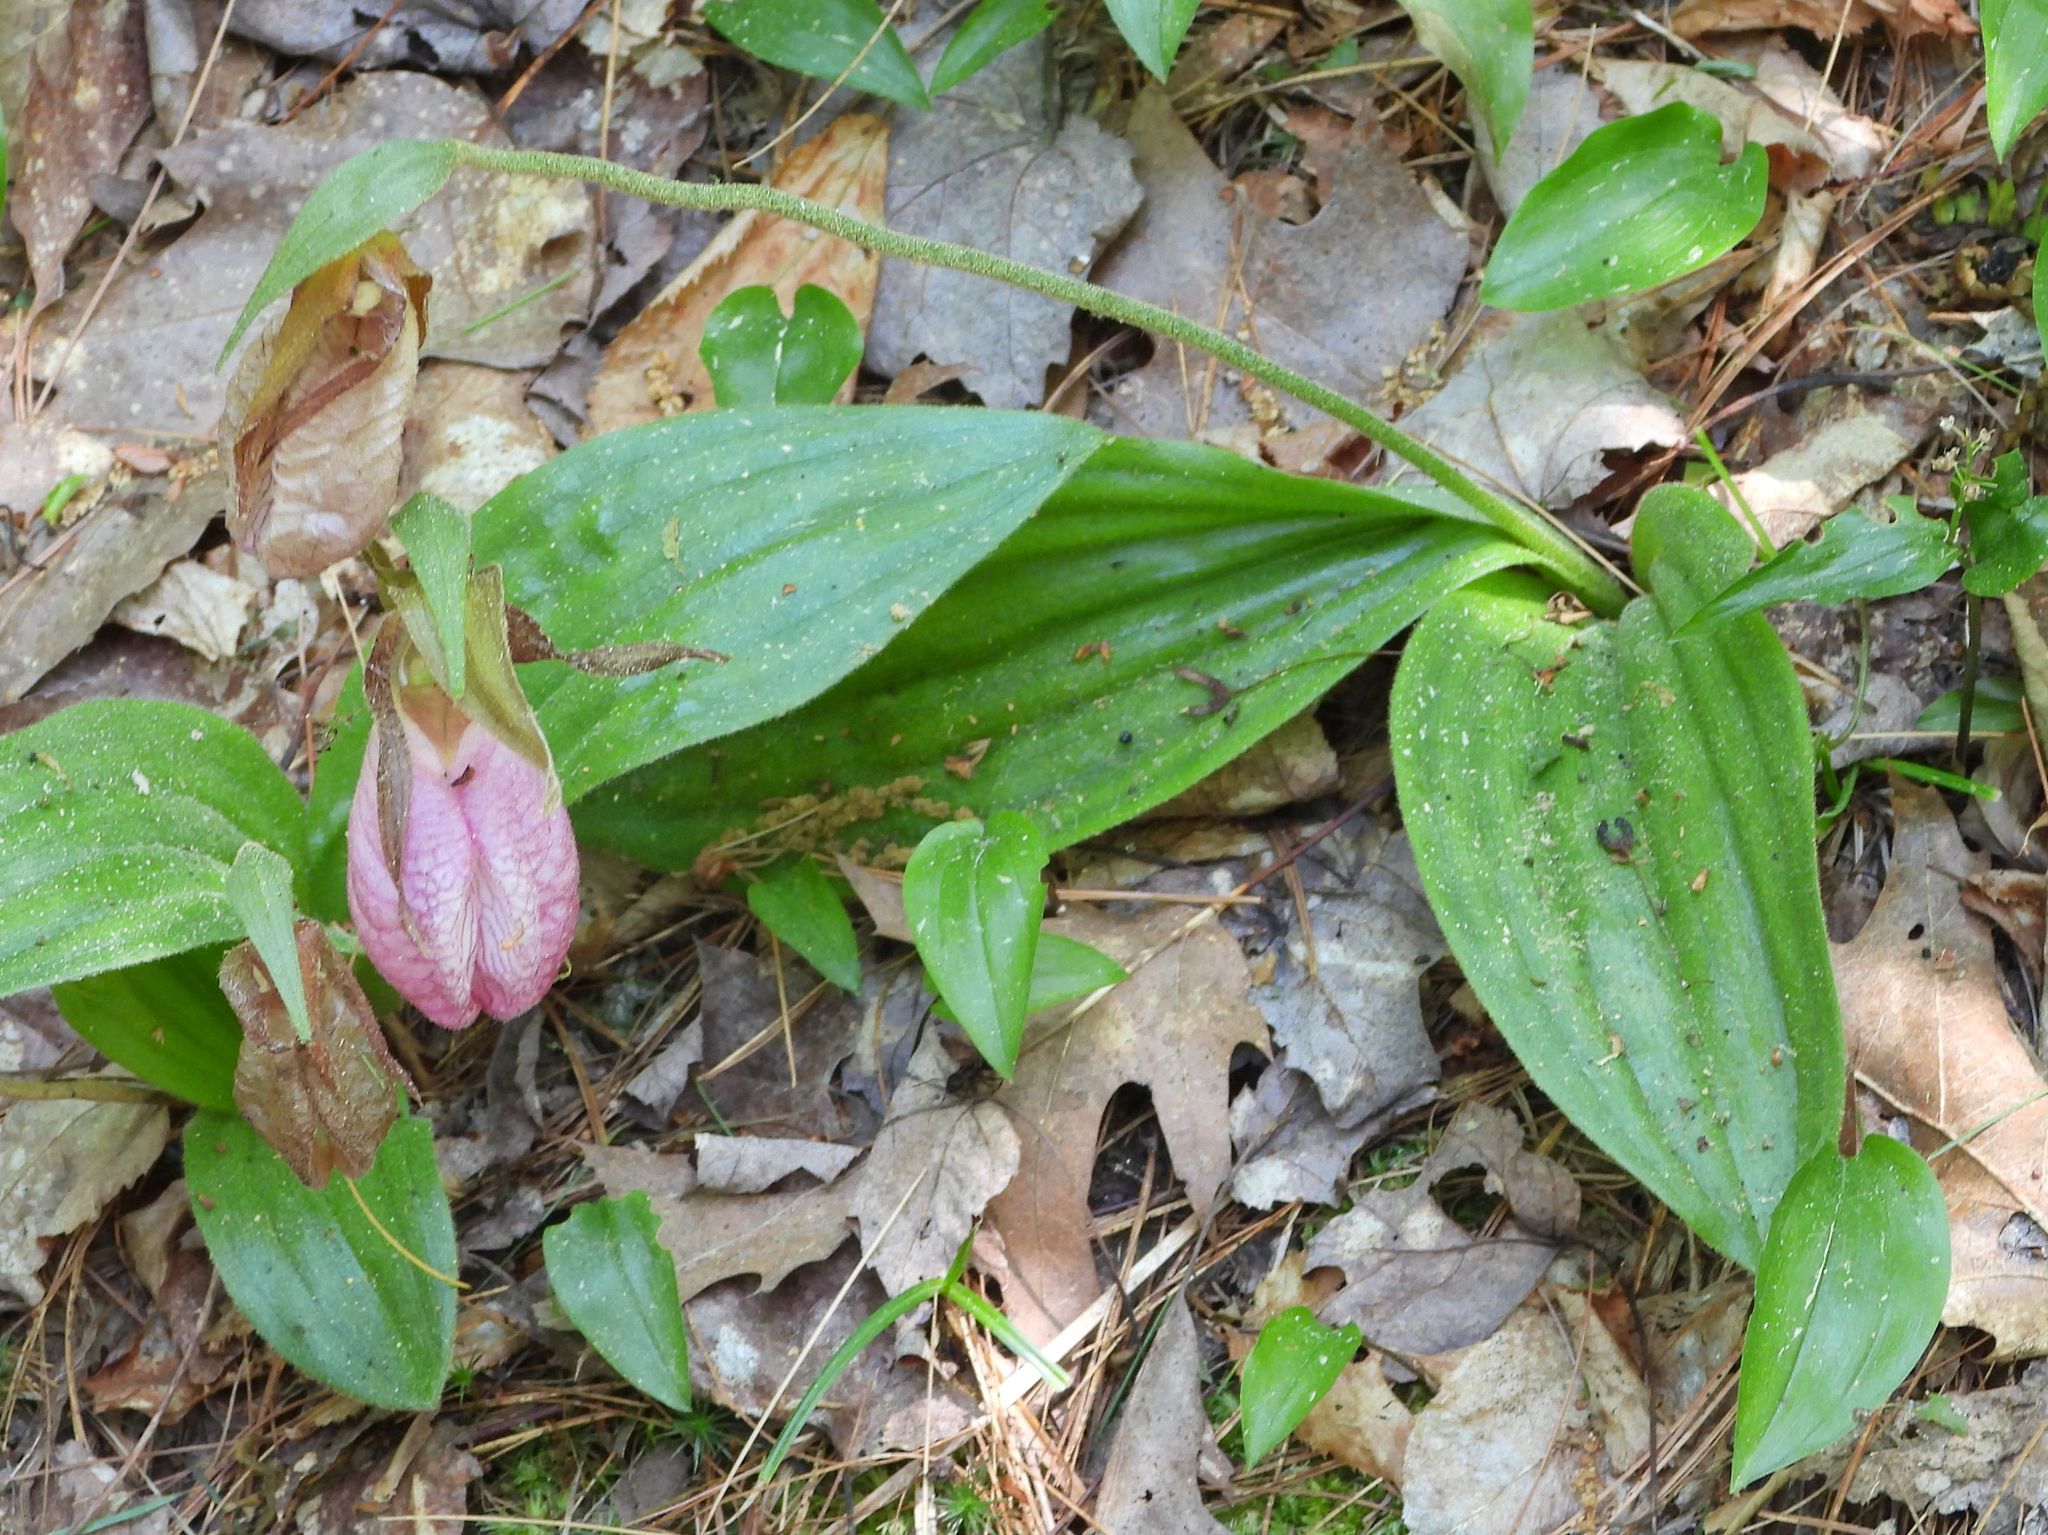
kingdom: Plantae
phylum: Tracheophyta
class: Liliopsida
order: Asparagales
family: Orchidaceae
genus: Cypripedium
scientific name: Cypripedium acaule
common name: Pink lady's-slipper
